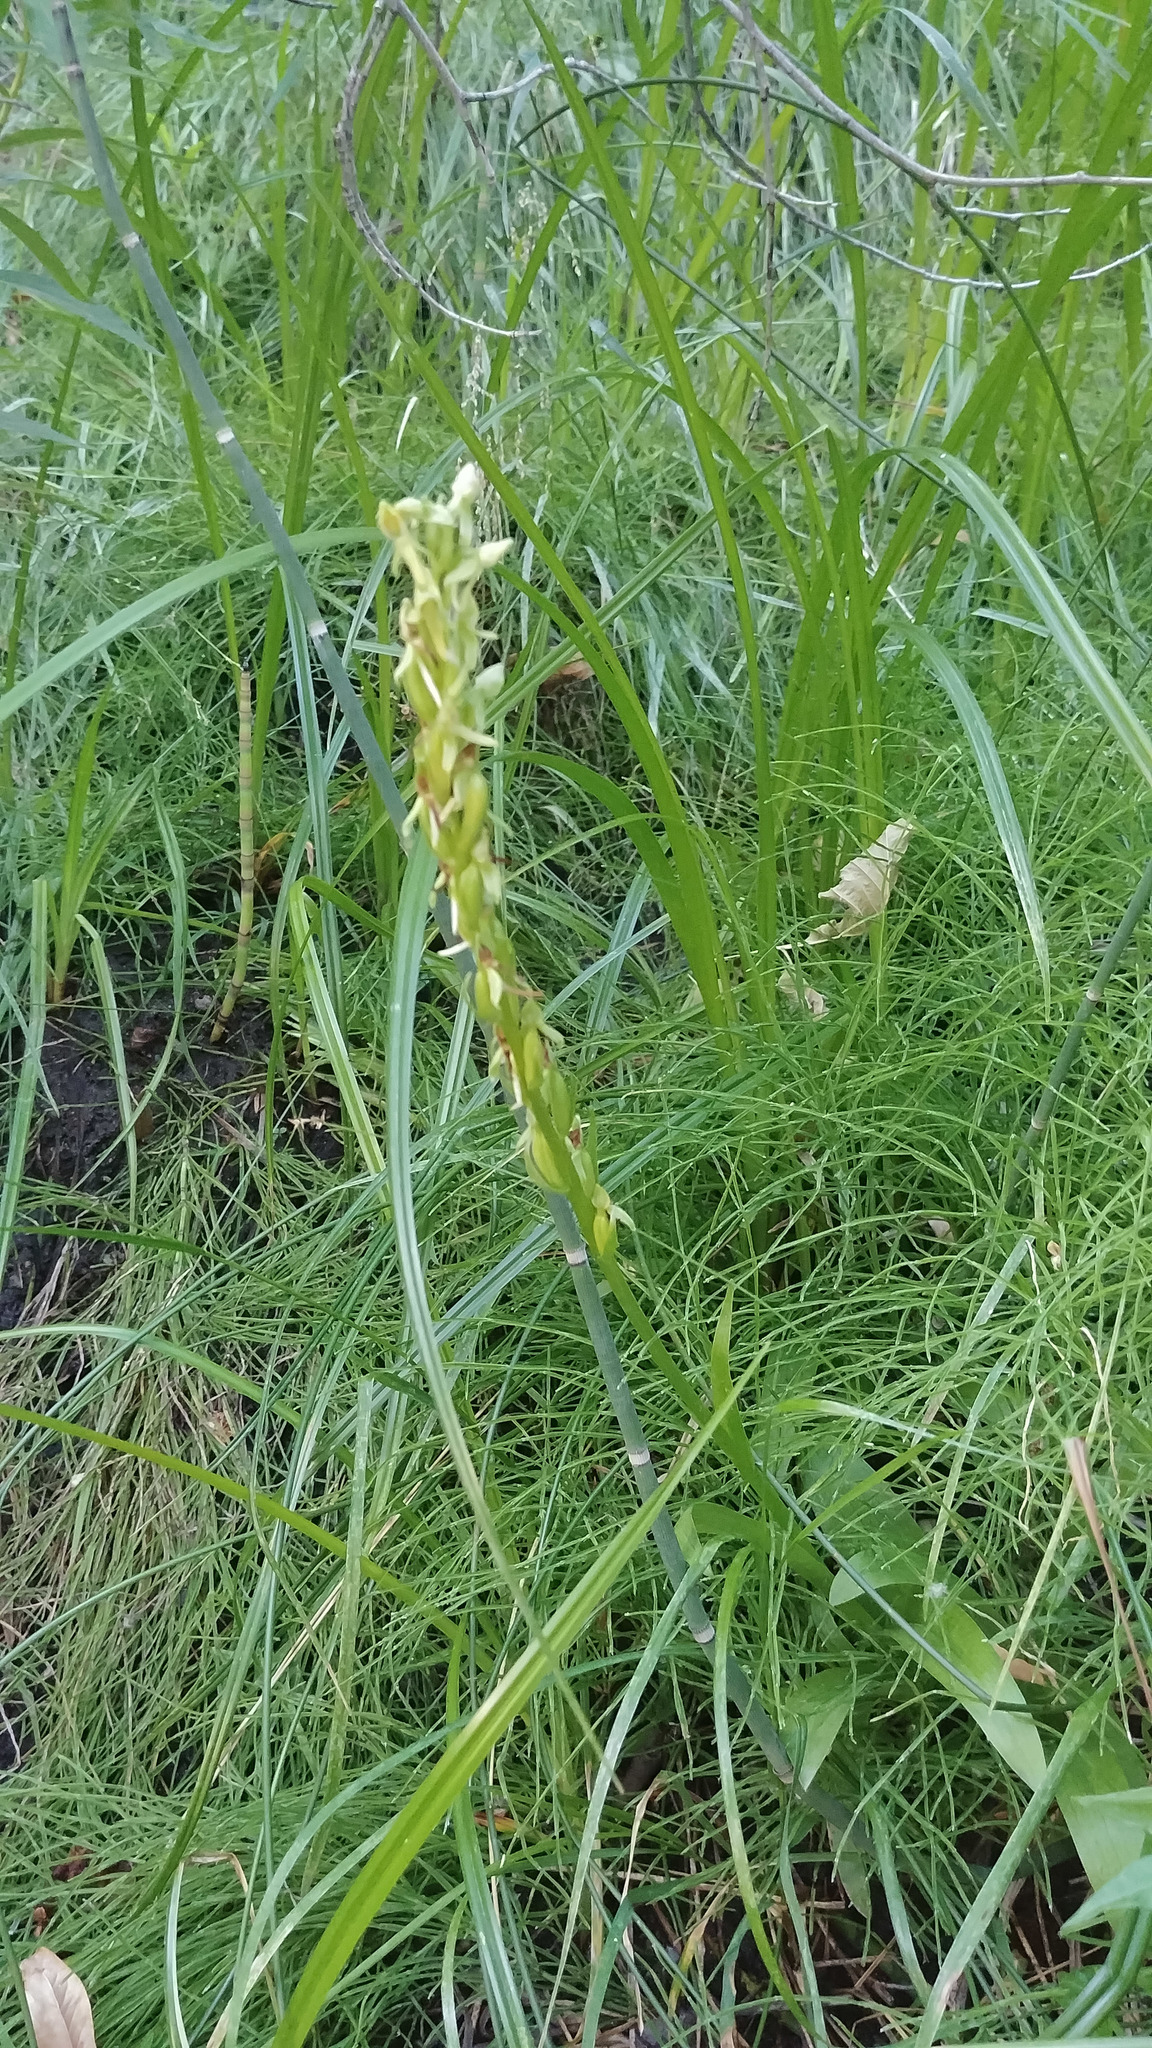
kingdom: Plantae
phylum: Tracheophyta
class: Liliopsida
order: Asparagales
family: Orchidaceae
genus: Platanthera
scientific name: Platanthera tescamnis
